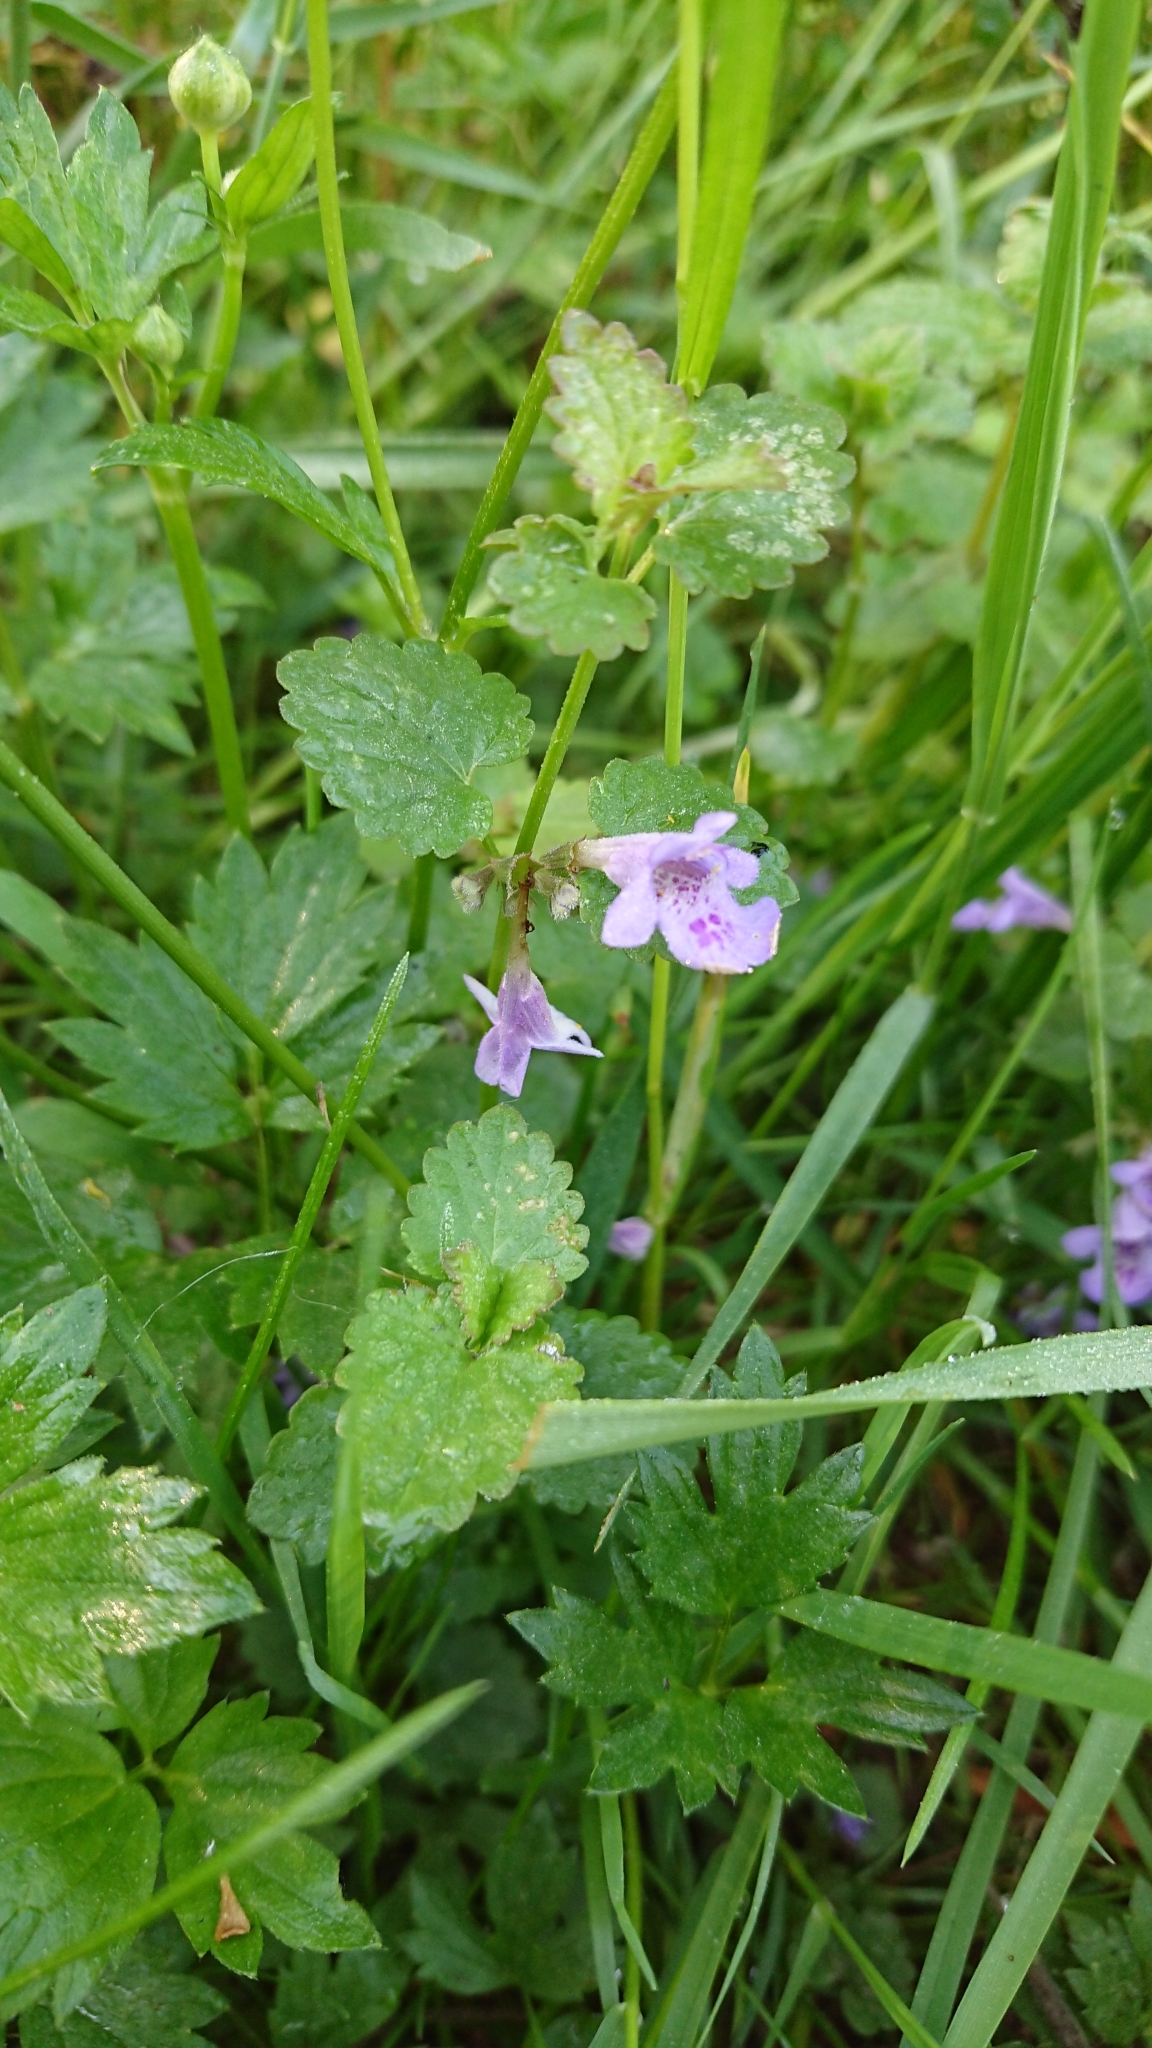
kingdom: Plantae
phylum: Tracheophyta
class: Magnoliopsida
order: Lamiales
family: Lamiaceae
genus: Glechoma
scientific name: Glechoma hederacea
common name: Ground ivy
